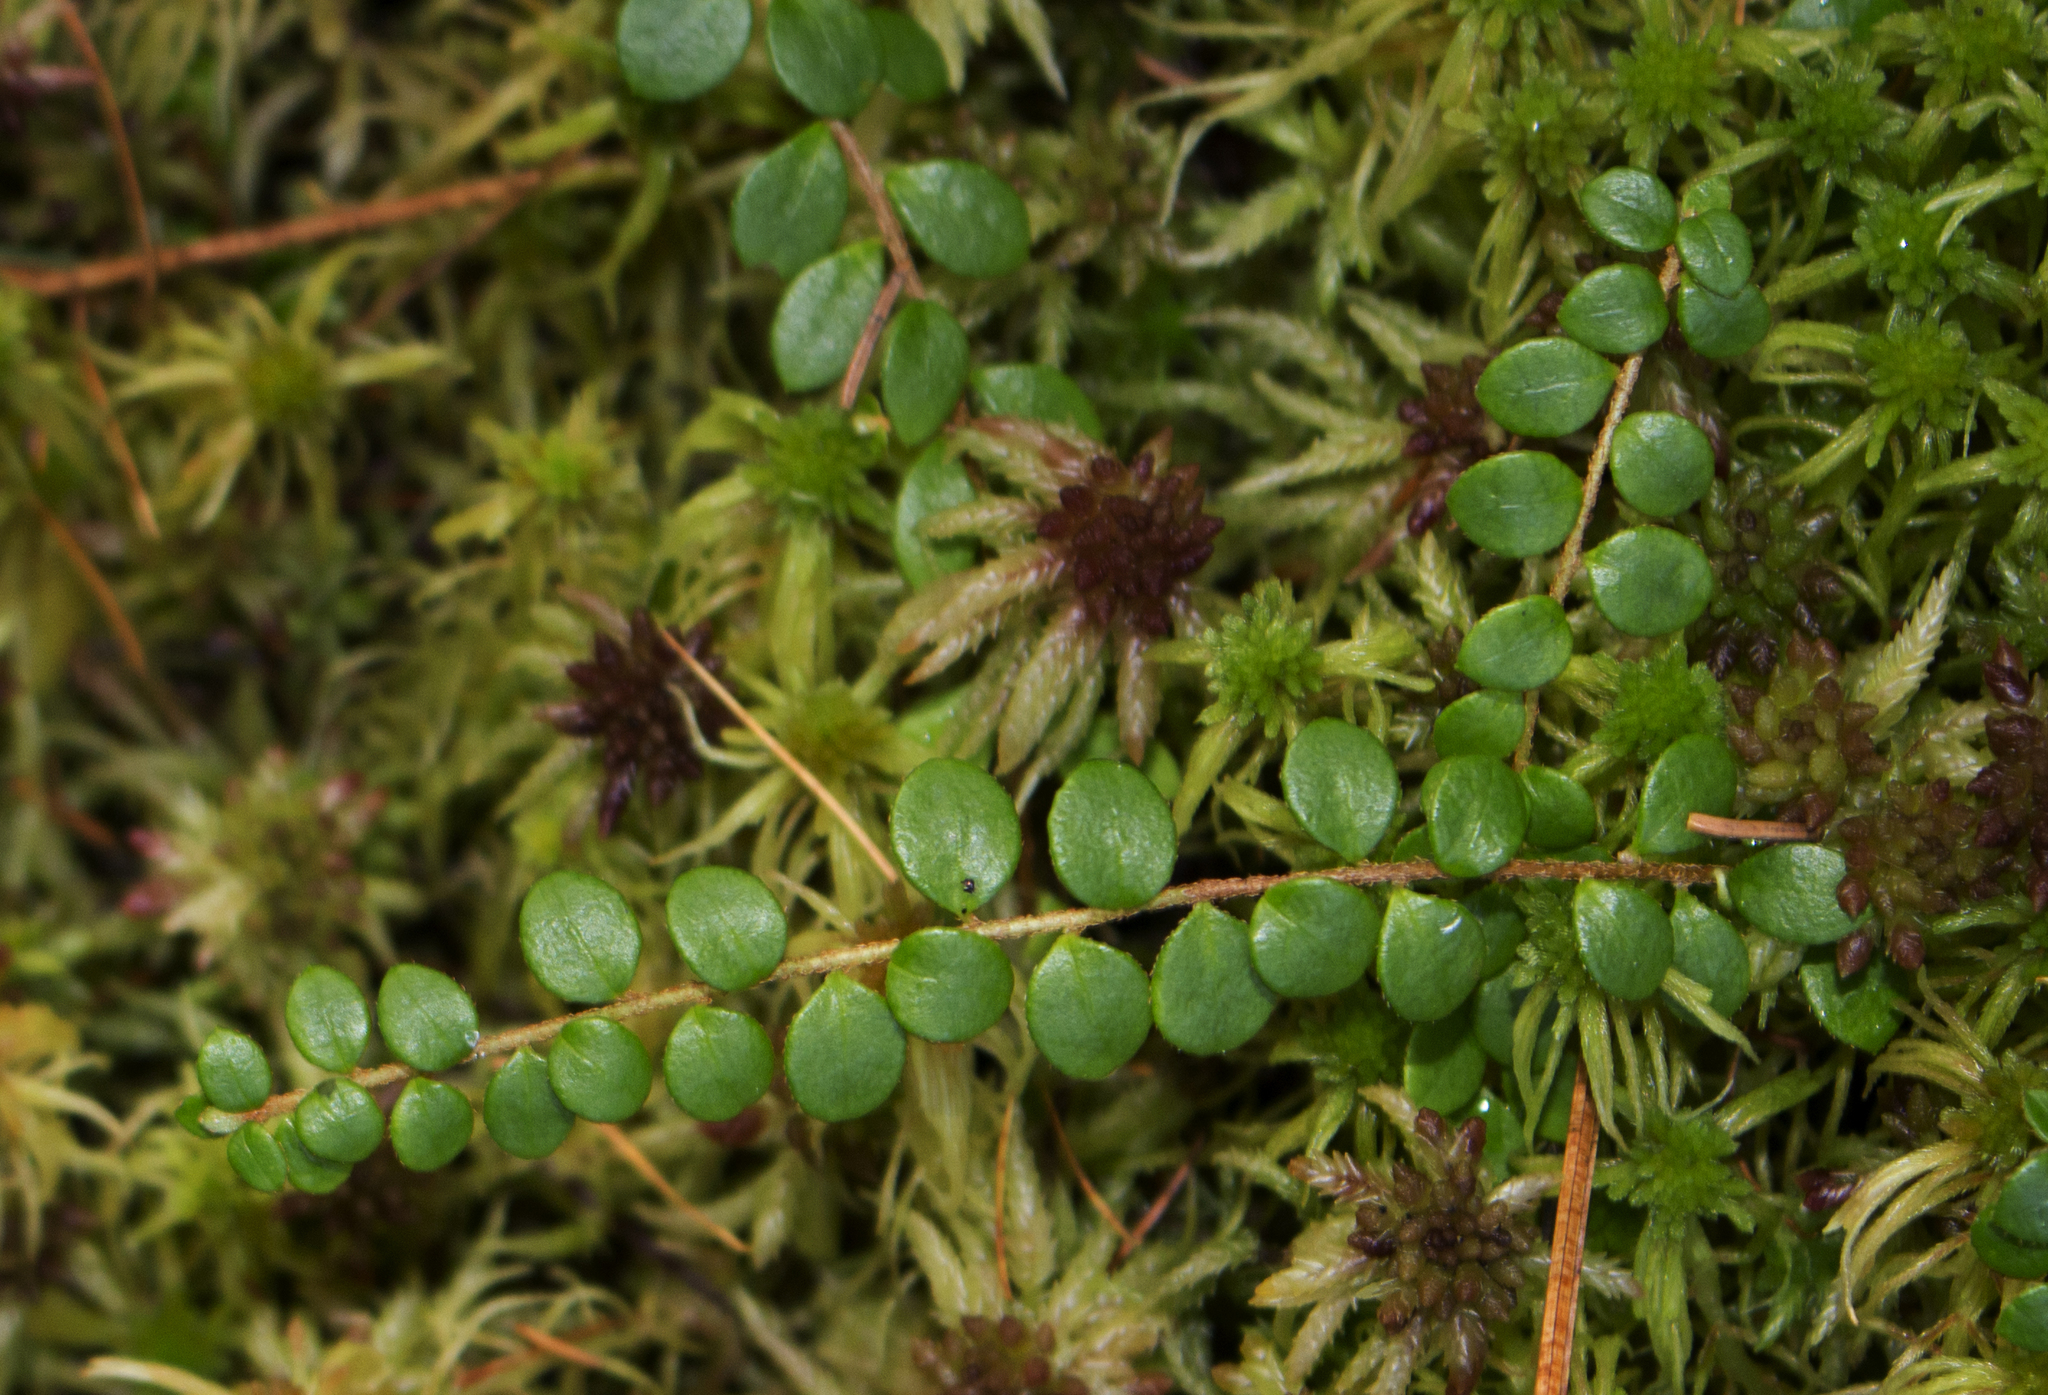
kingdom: Plantae
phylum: Tracheophyta
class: Magnoliopsida
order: Ericales
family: Ericaceae
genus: Gaultheria
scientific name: Gaultheria hispidula
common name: Cancer wintergreen
